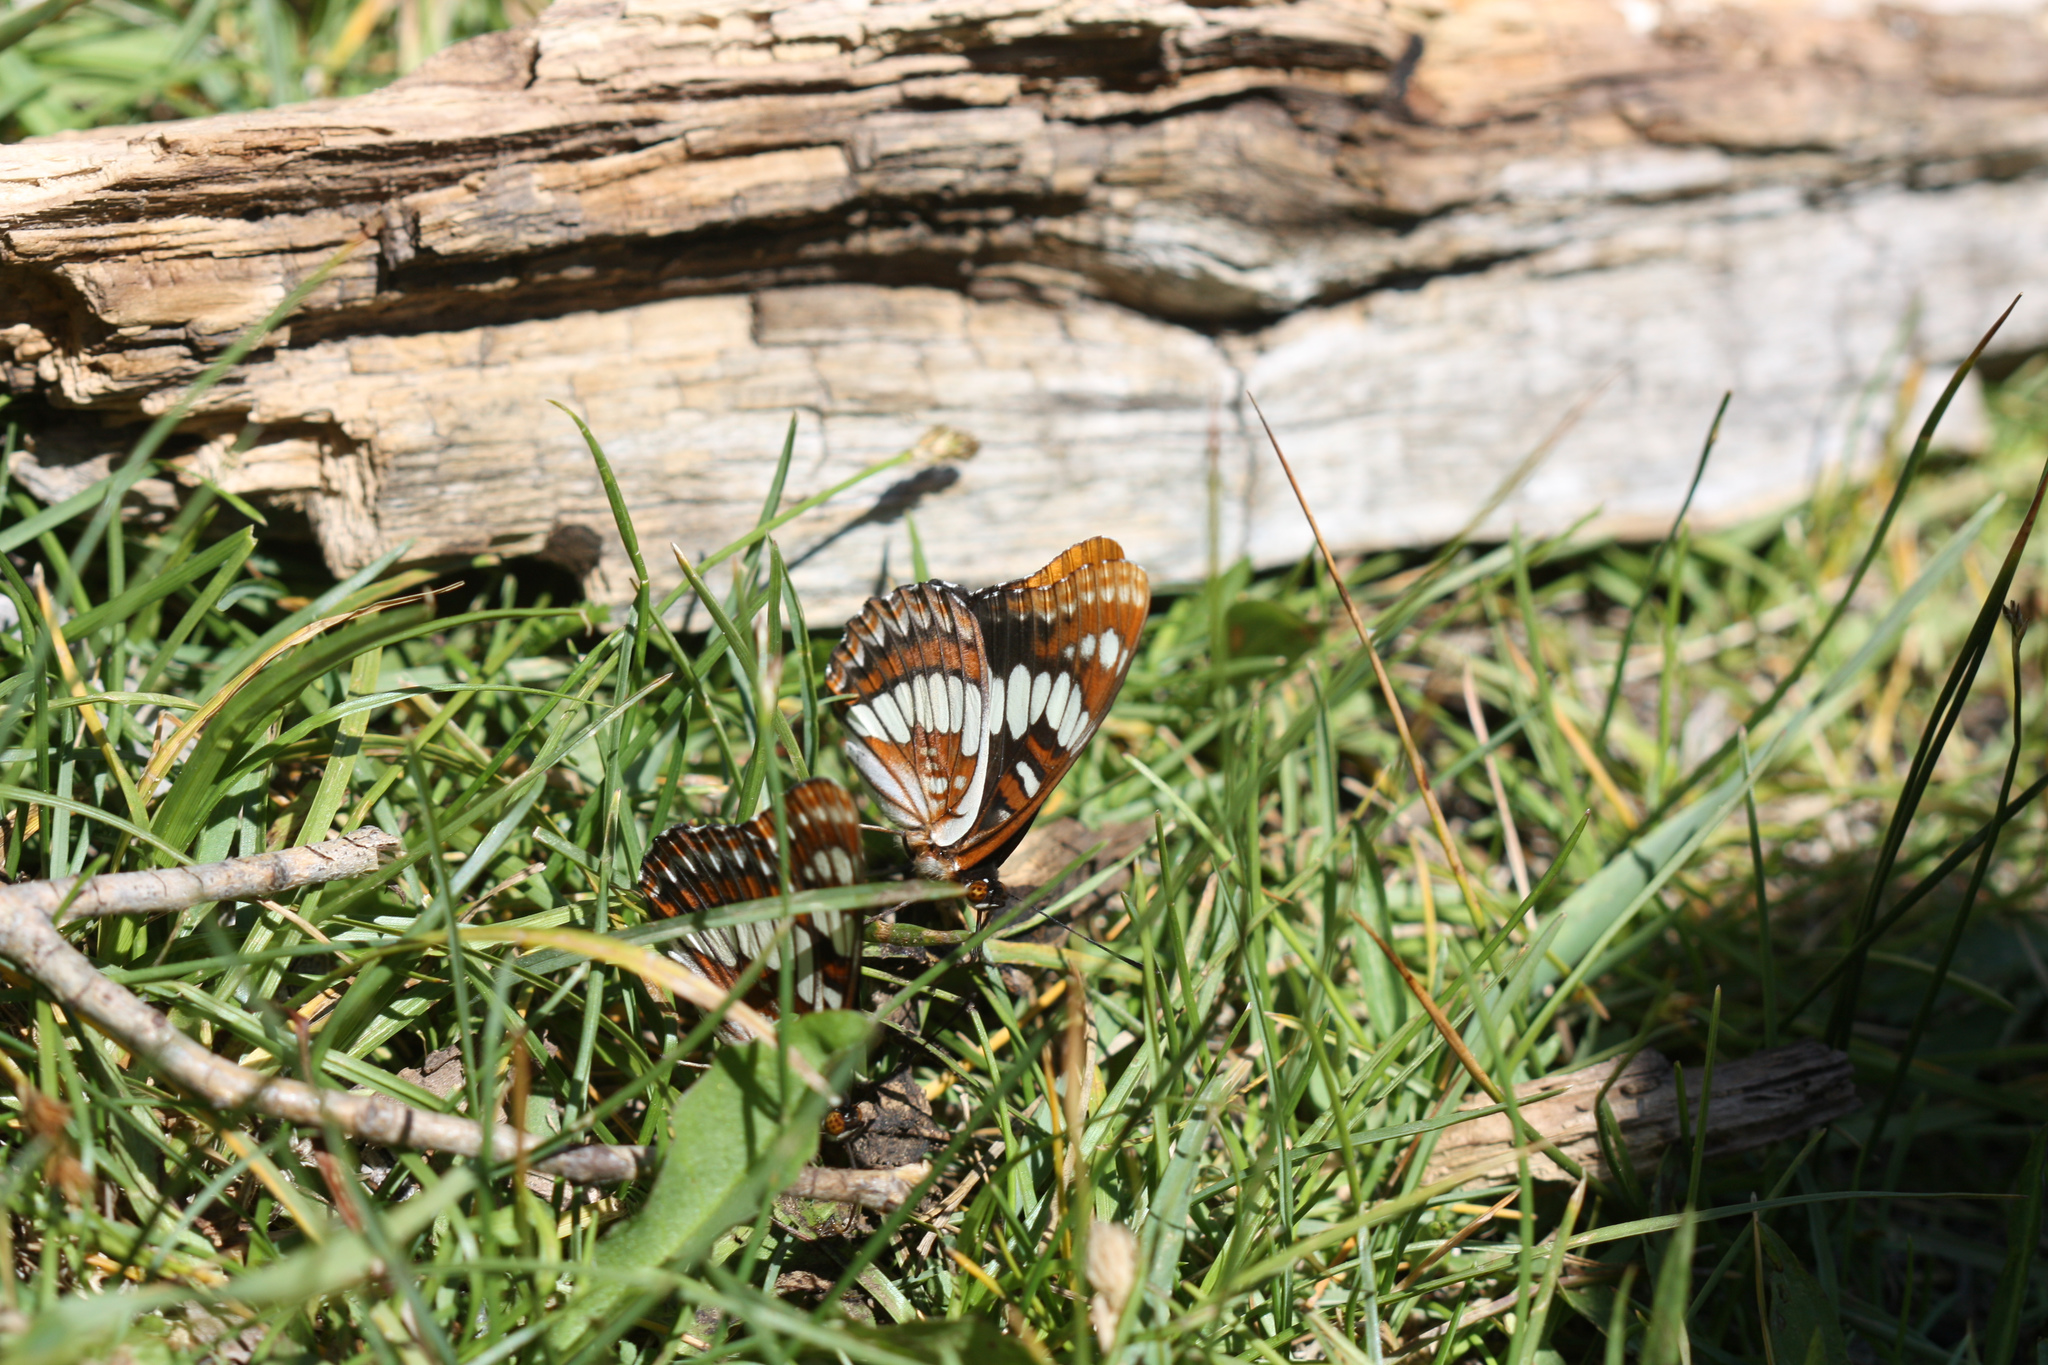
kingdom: Animalia
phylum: Arthropoda
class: Insecta
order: Lepidoptera
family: Nymphalidae
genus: Limenitis
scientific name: Limenitis lorquini
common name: Lorquin's admiral
